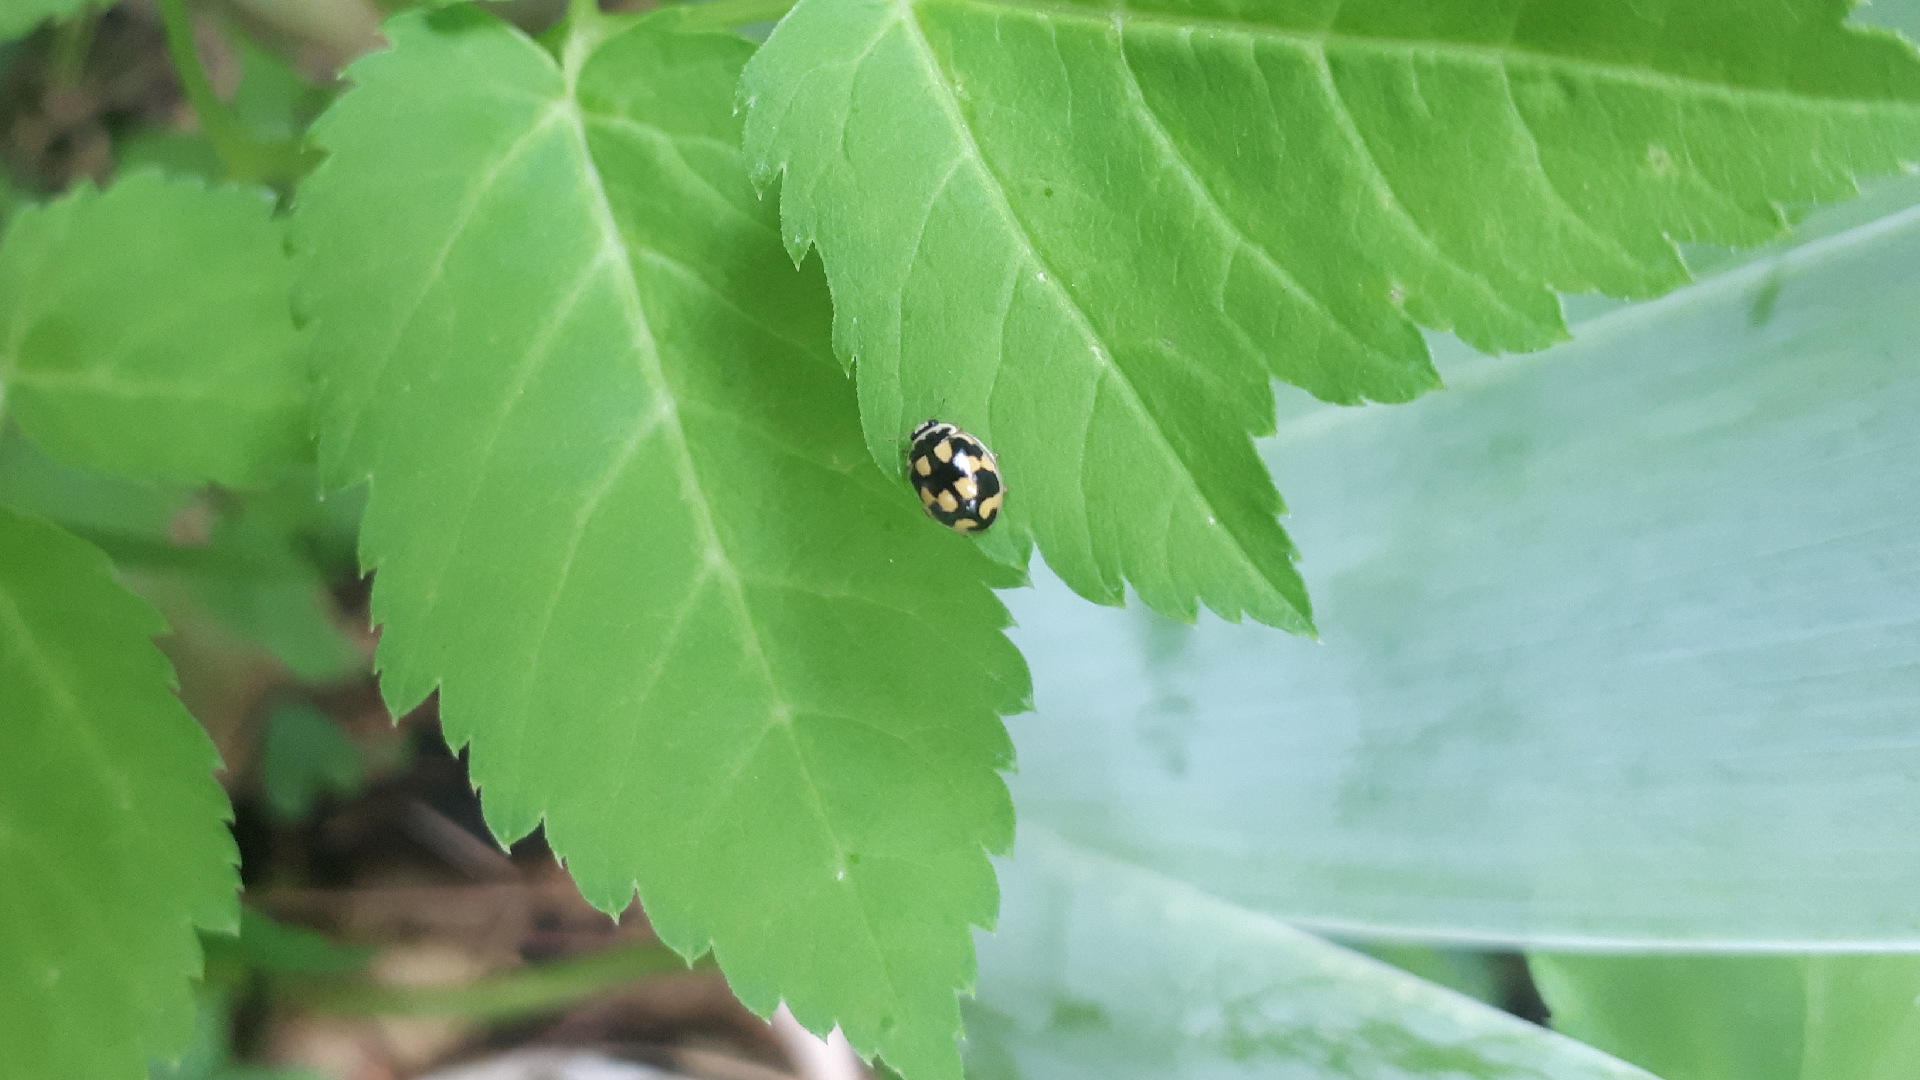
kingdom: Animalia
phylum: Arthropoda
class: Insecta
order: Coleoptera
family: Coccinellidae
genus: Propylaea
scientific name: Propylaea quatuordecimpunctata
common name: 14-spotted ladybird beetle
